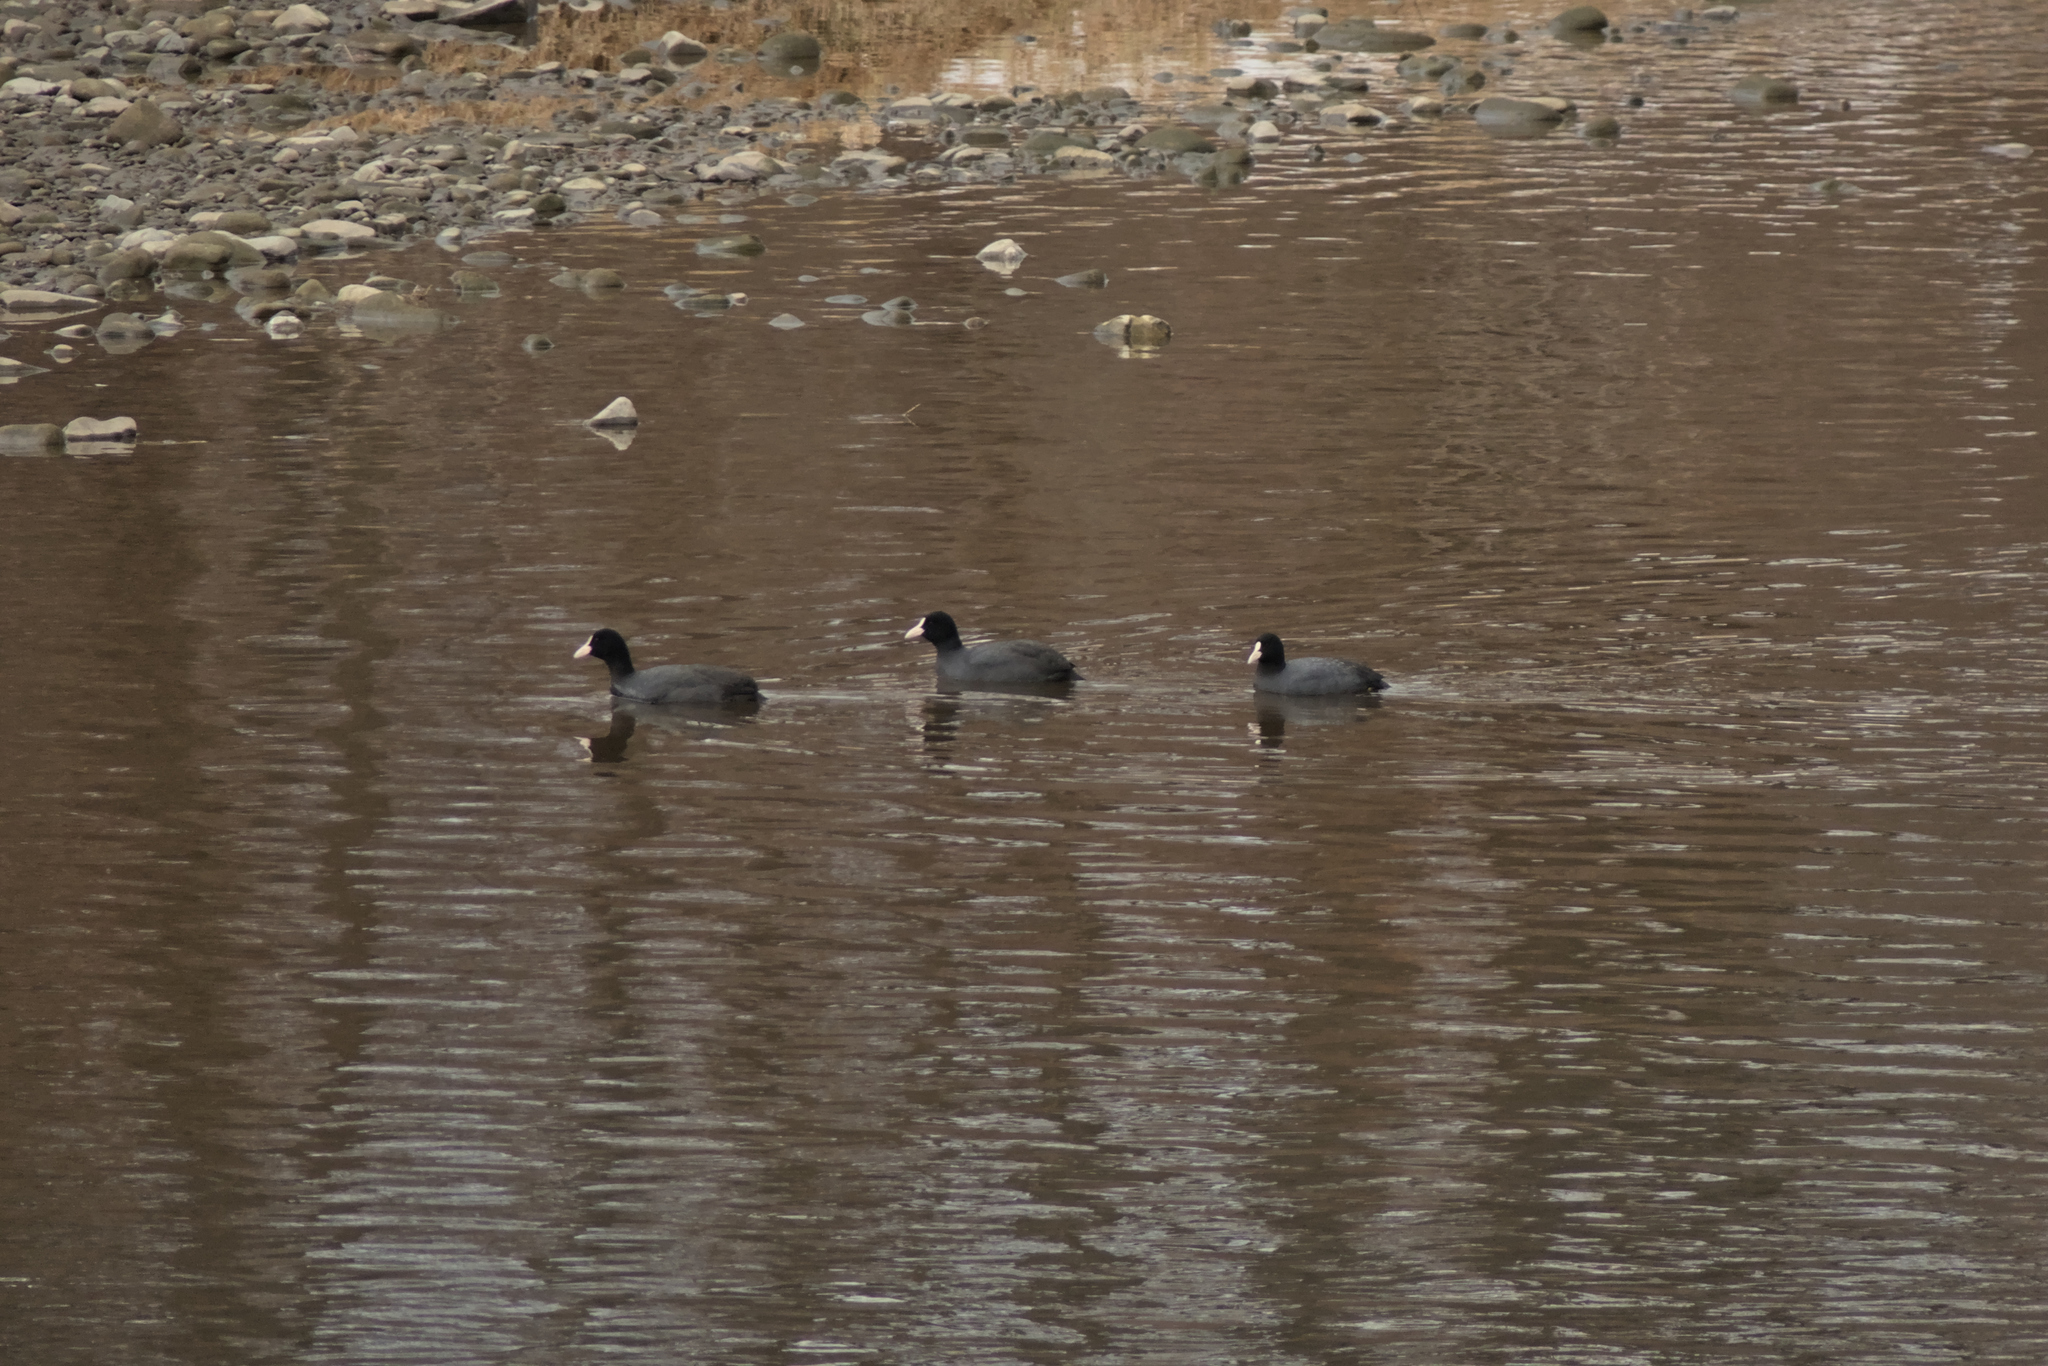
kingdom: Animalia
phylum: Chordata
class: Aves
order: Gruiformes
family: Rallidae
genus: Fulica
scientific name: Fulica atra
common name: Eurasian coot
